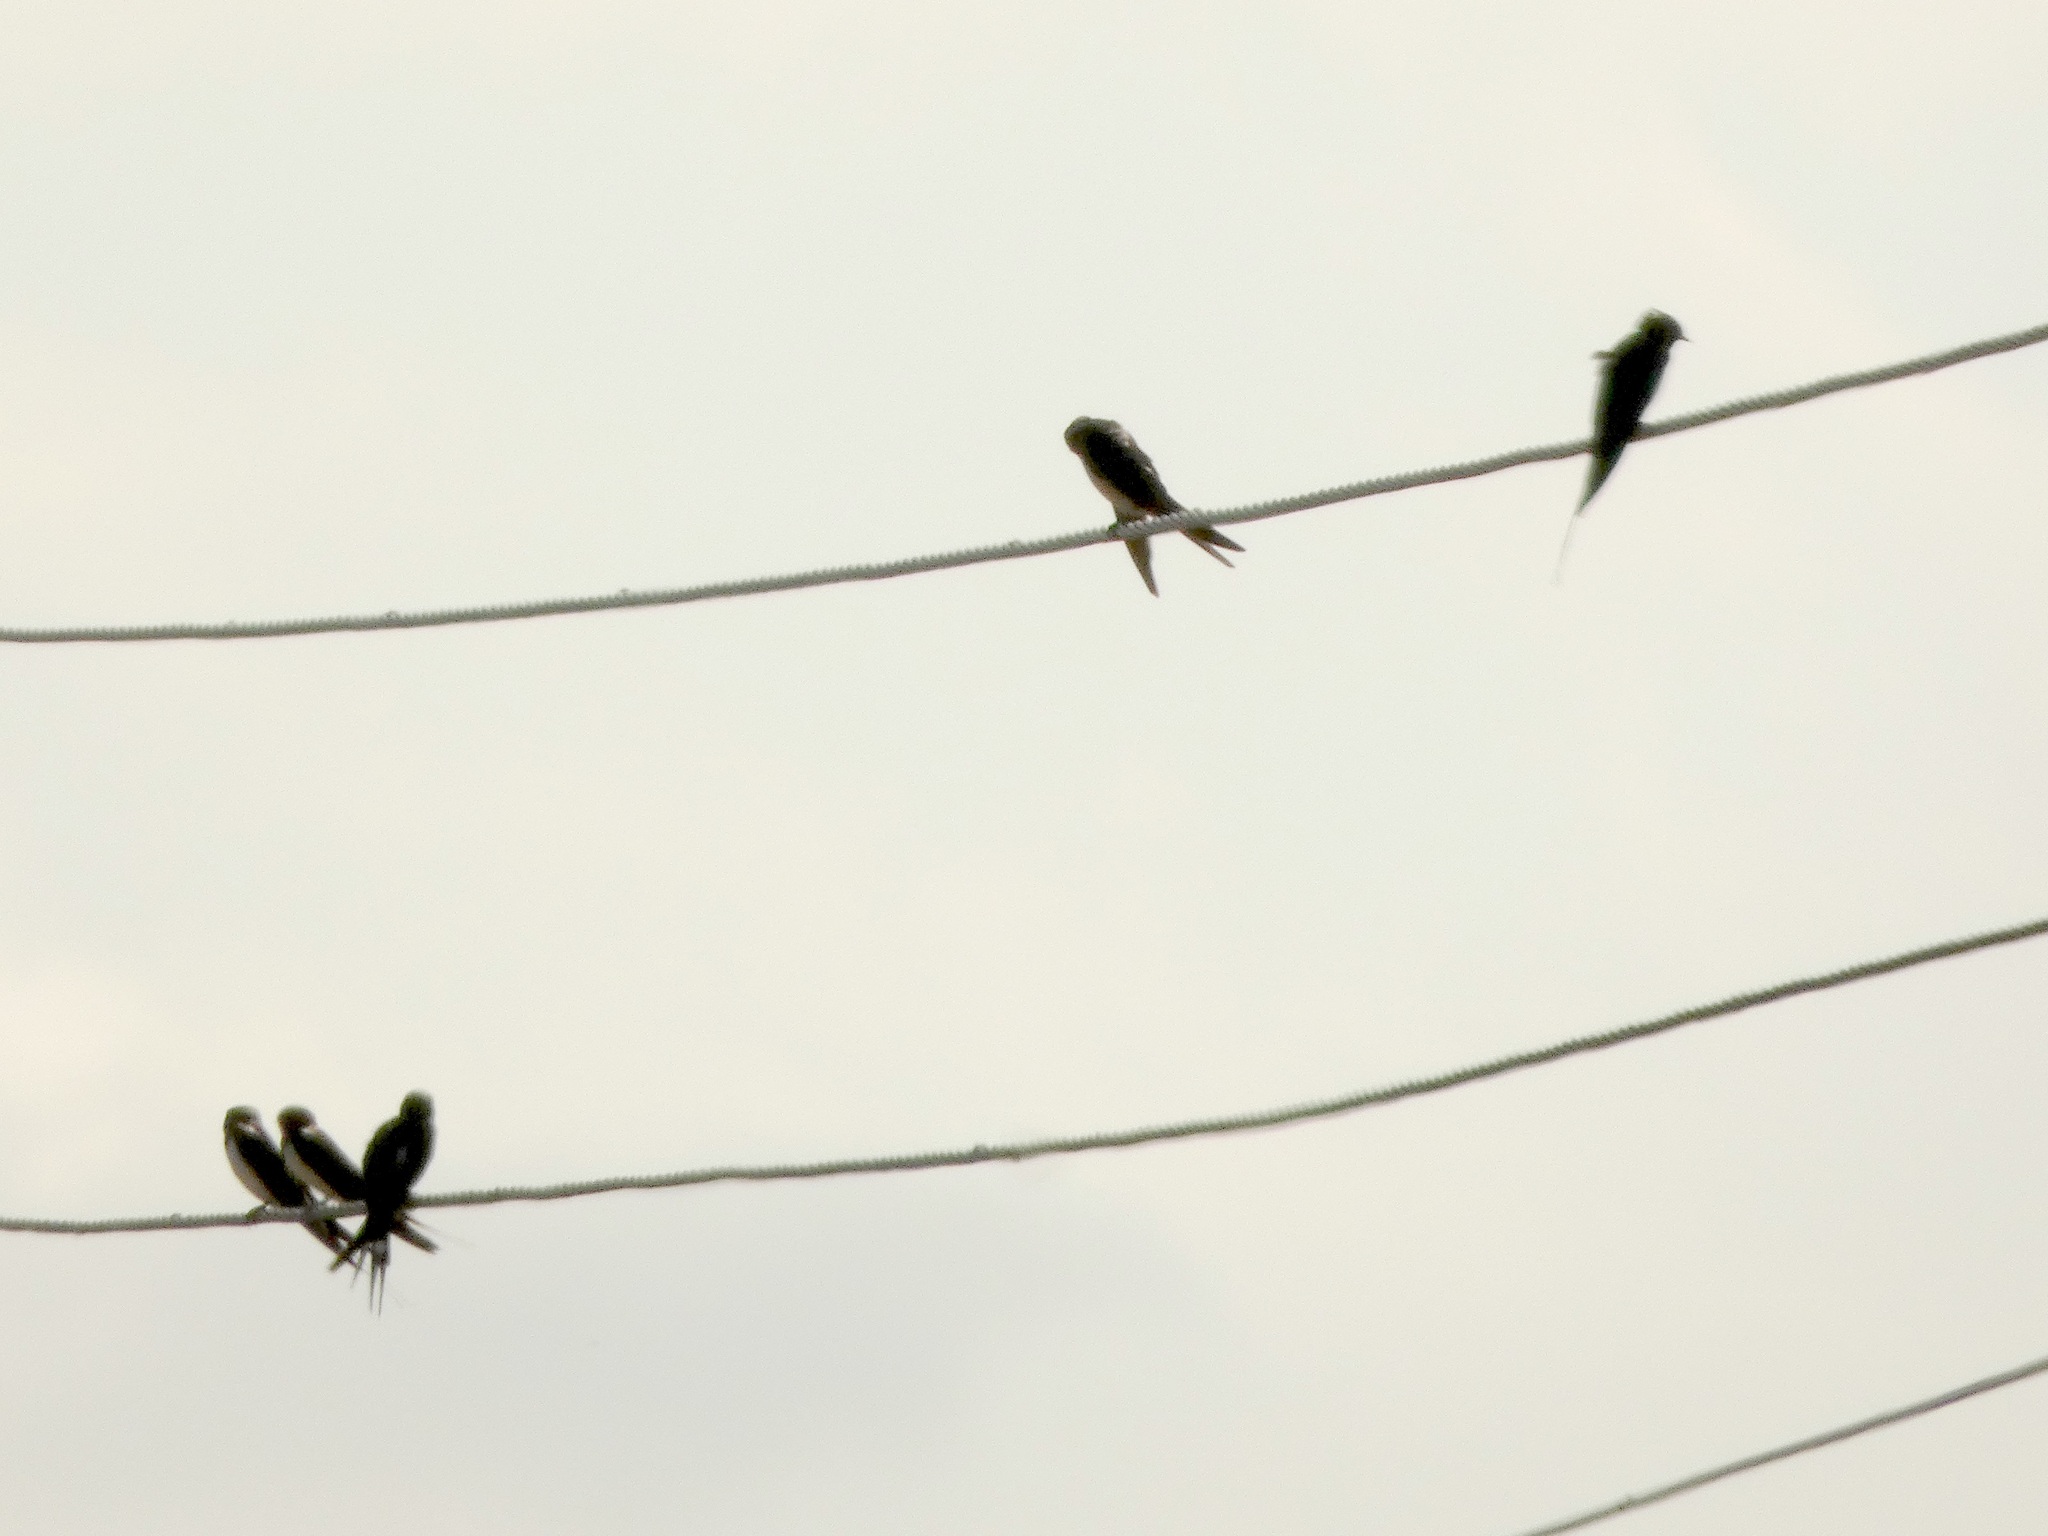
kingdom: Animalia
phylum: Chordata
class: Aves
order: Passeriformes
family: Hirundinidae
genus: Hirundo
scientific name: Hirundo rustica
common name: Barn swallow
